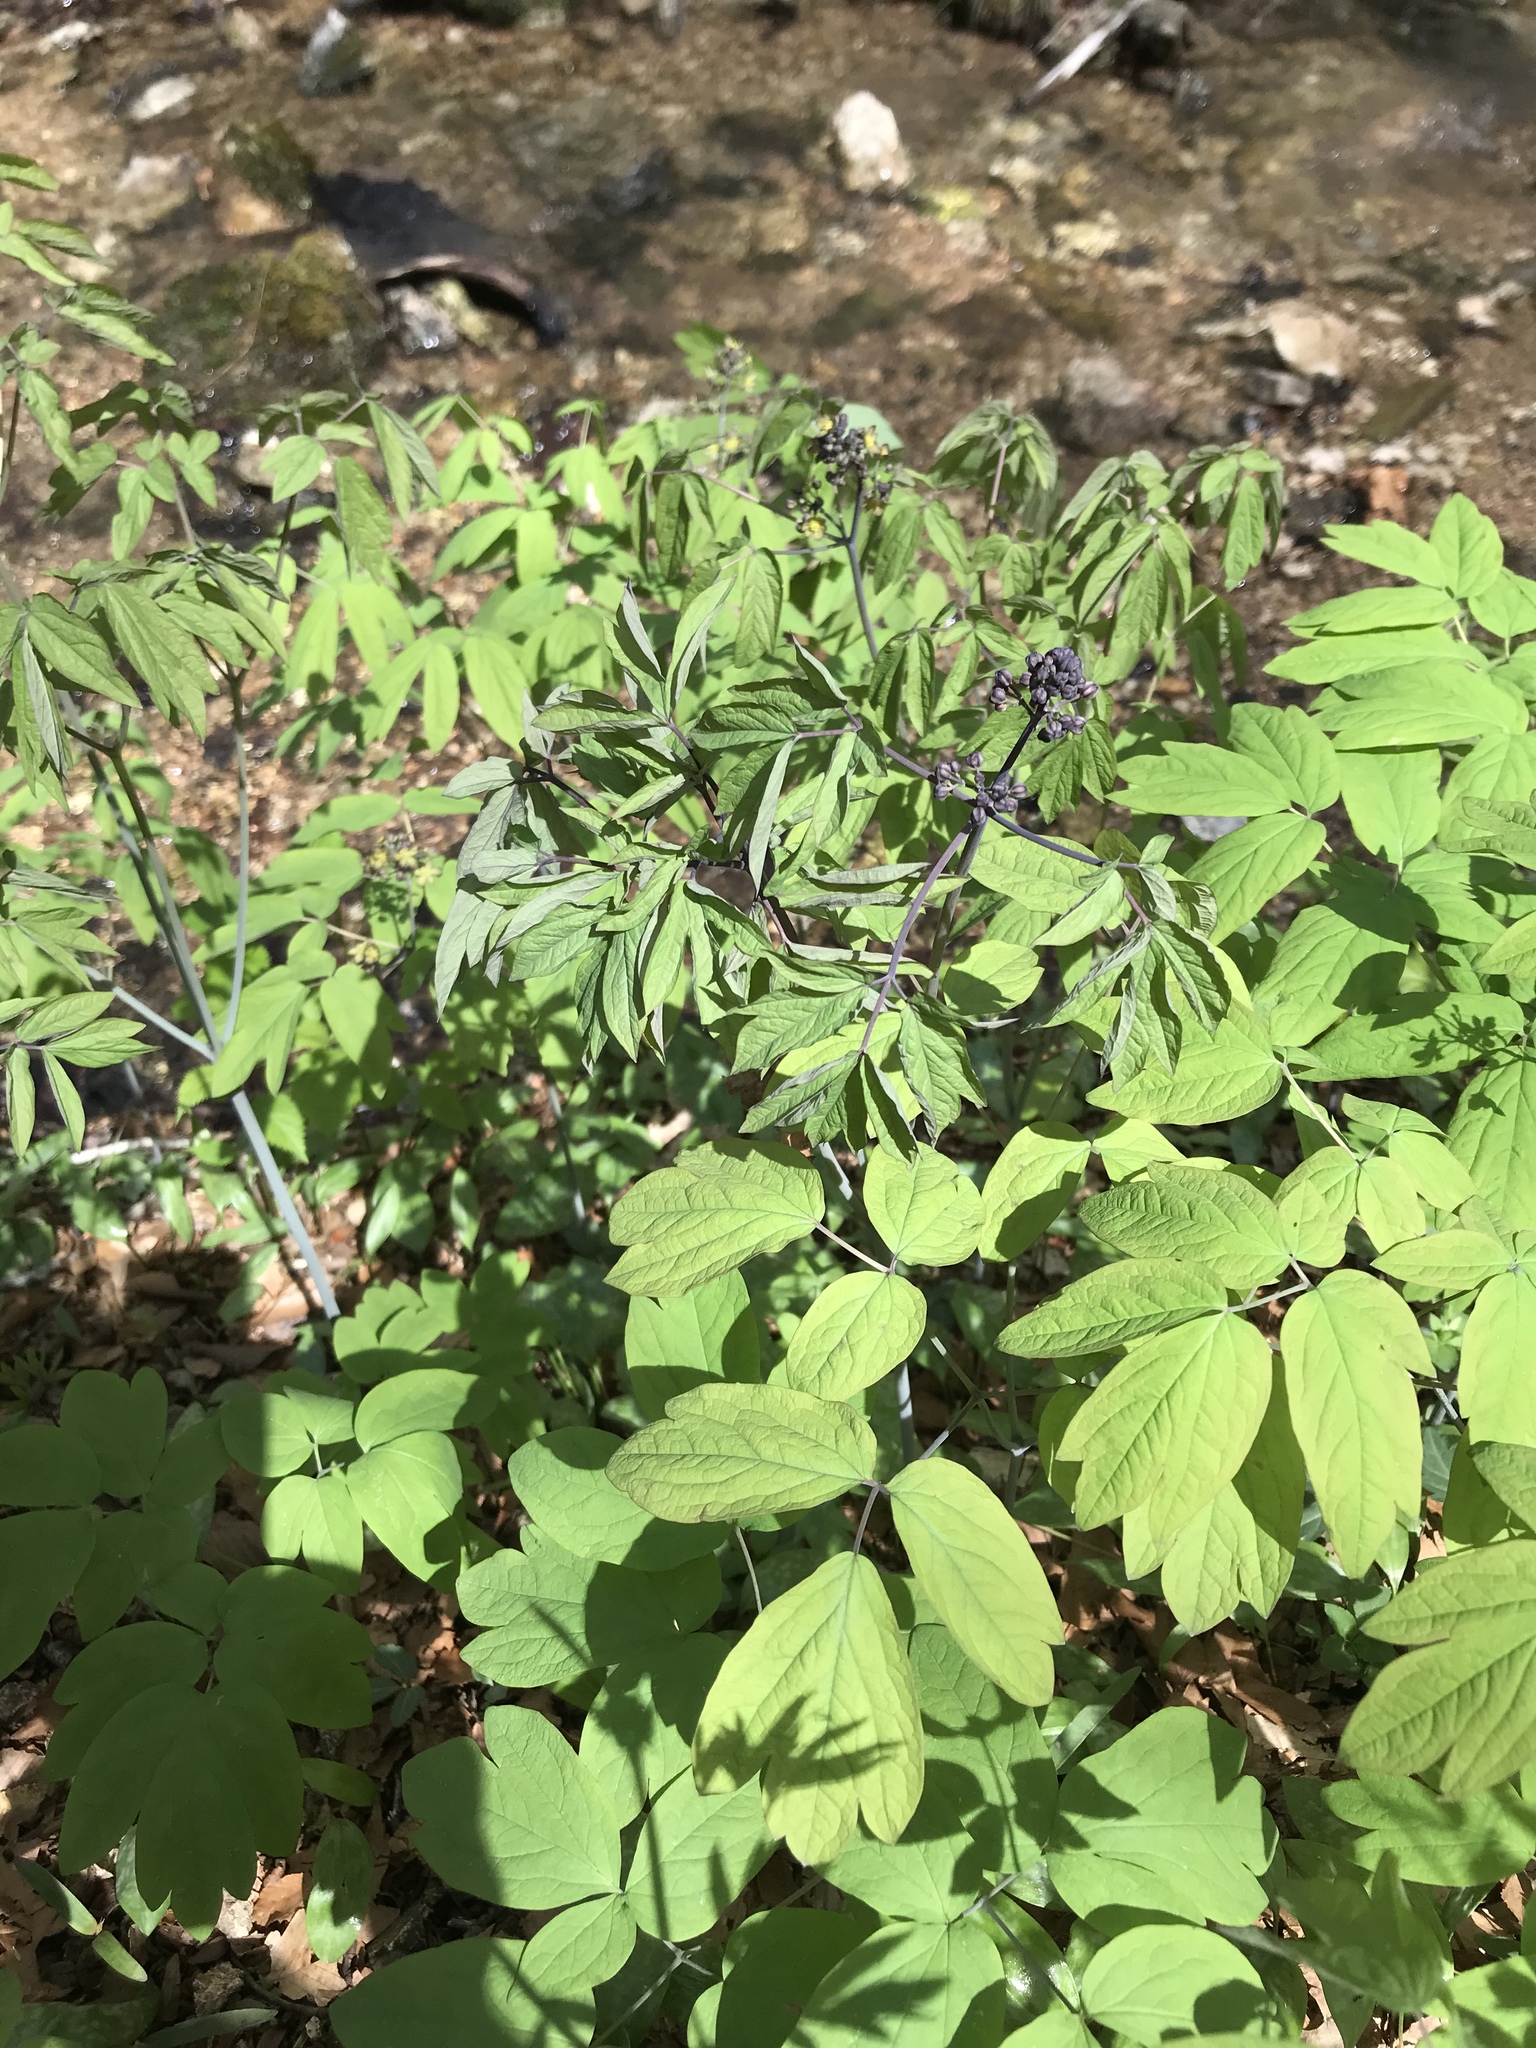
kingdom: Plantae
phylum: Tracheophyta
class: Magnoliopsida
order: Ranunculales
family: Berberidaceae
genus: Caulophyllum
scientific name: Caulophyllum thalictroides
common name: Blue cohosh
